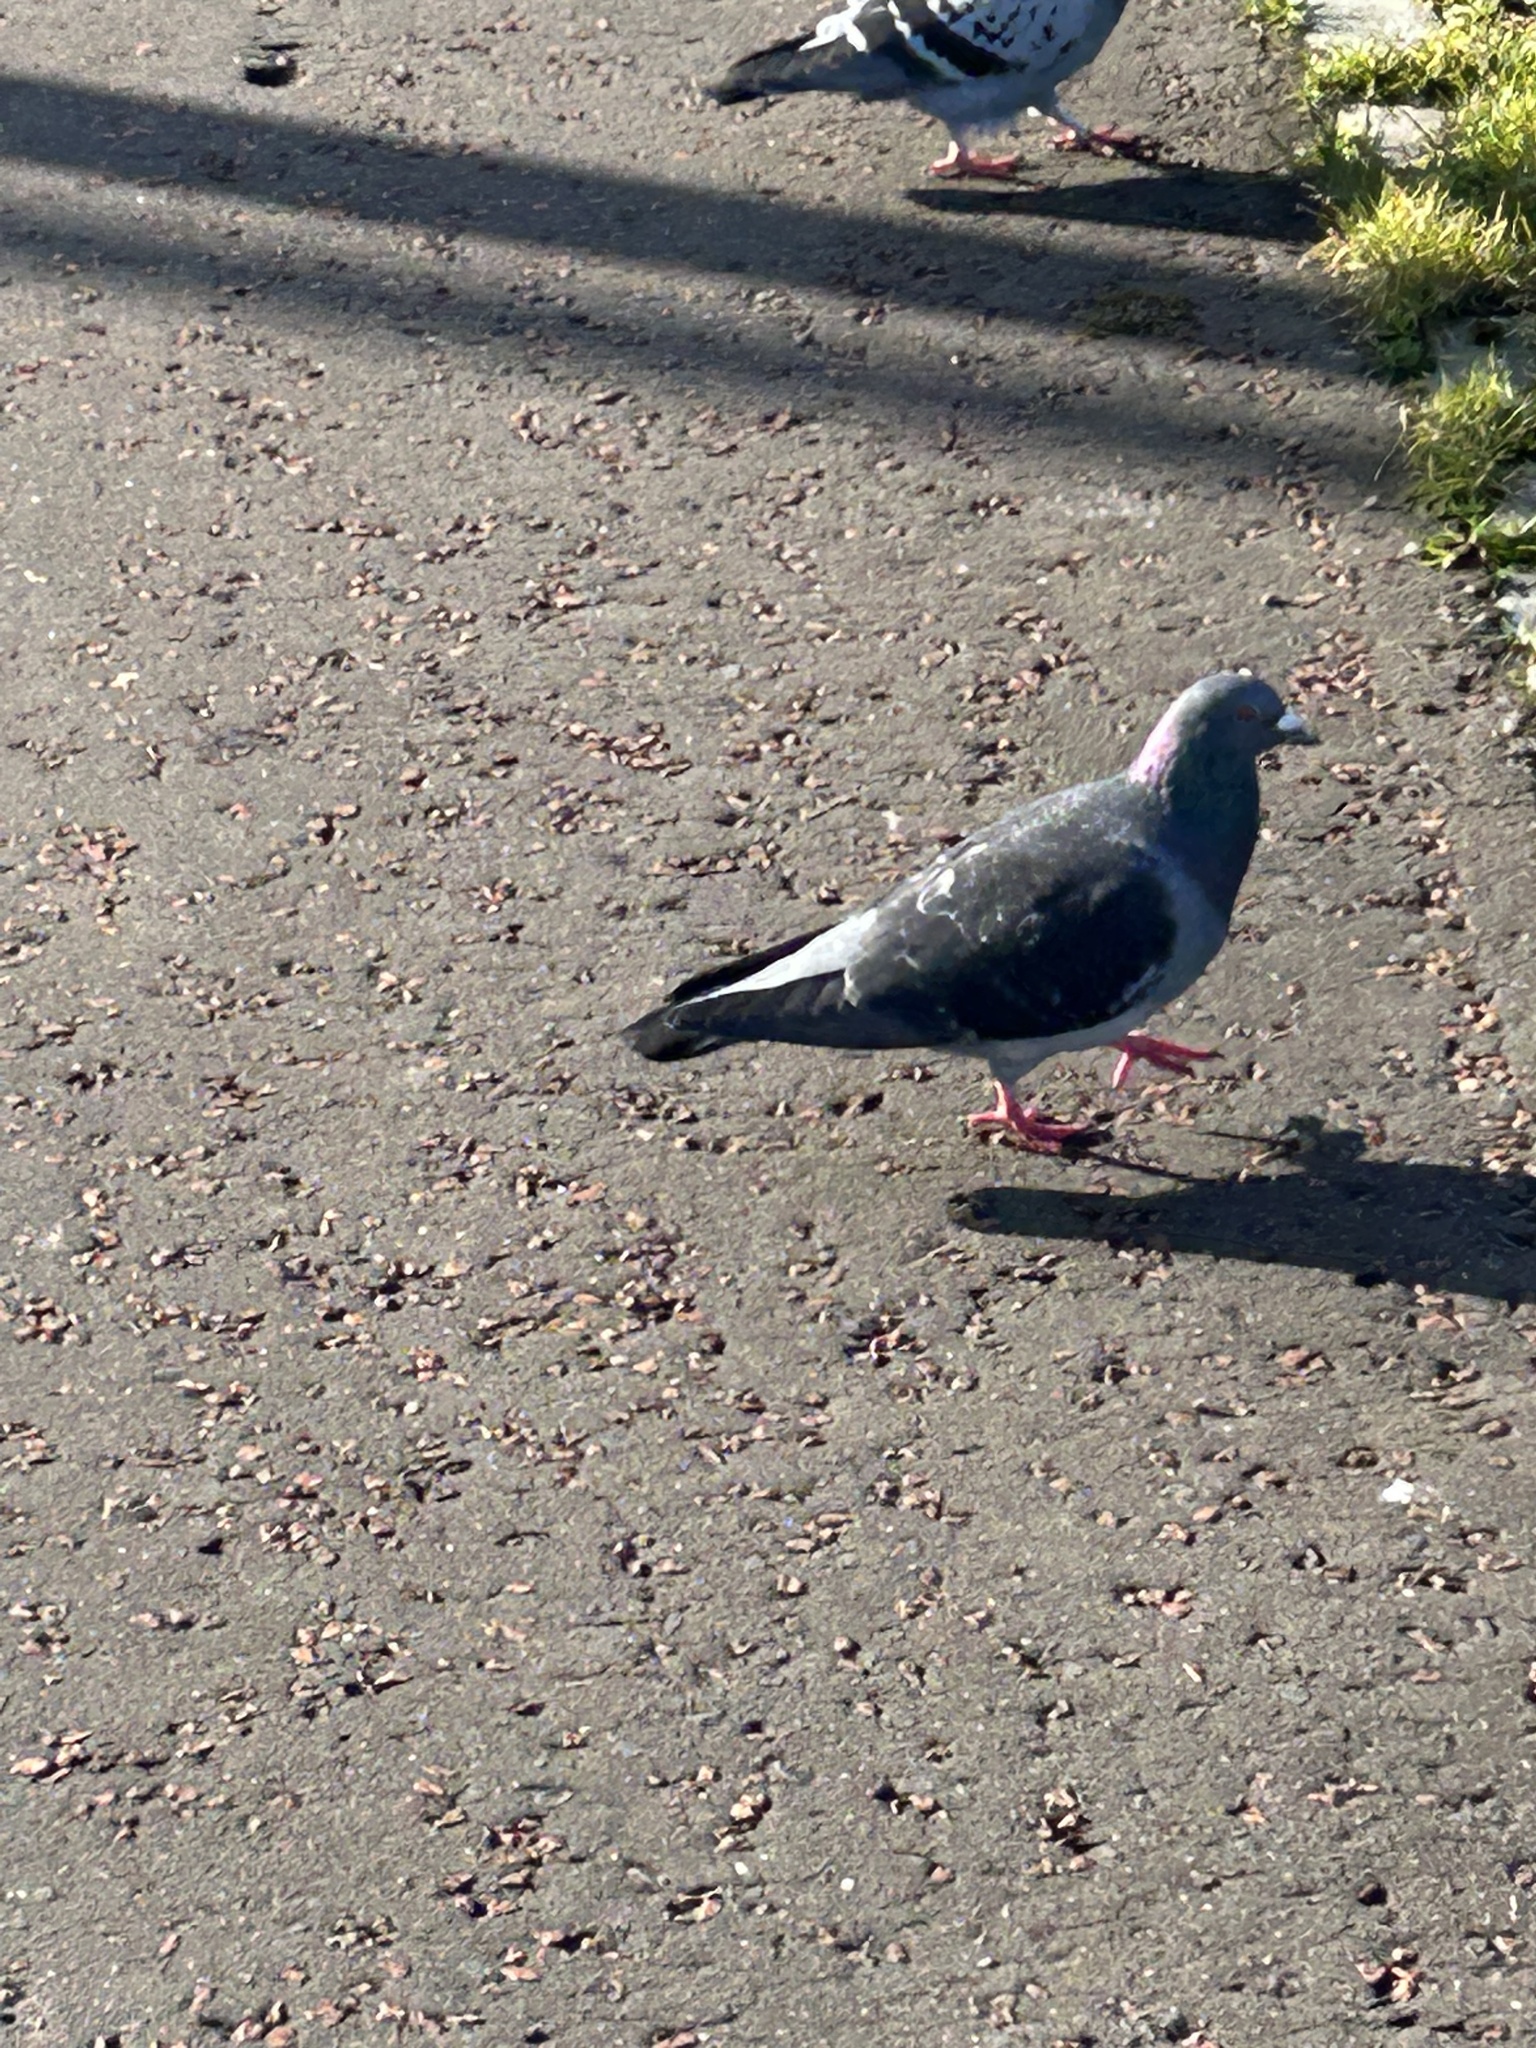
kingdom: Animalia
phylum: Chordata
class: Aves
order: Columbiformes
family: Columbidae
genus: Columba
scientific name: Columba livia
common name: Rock pigeon
